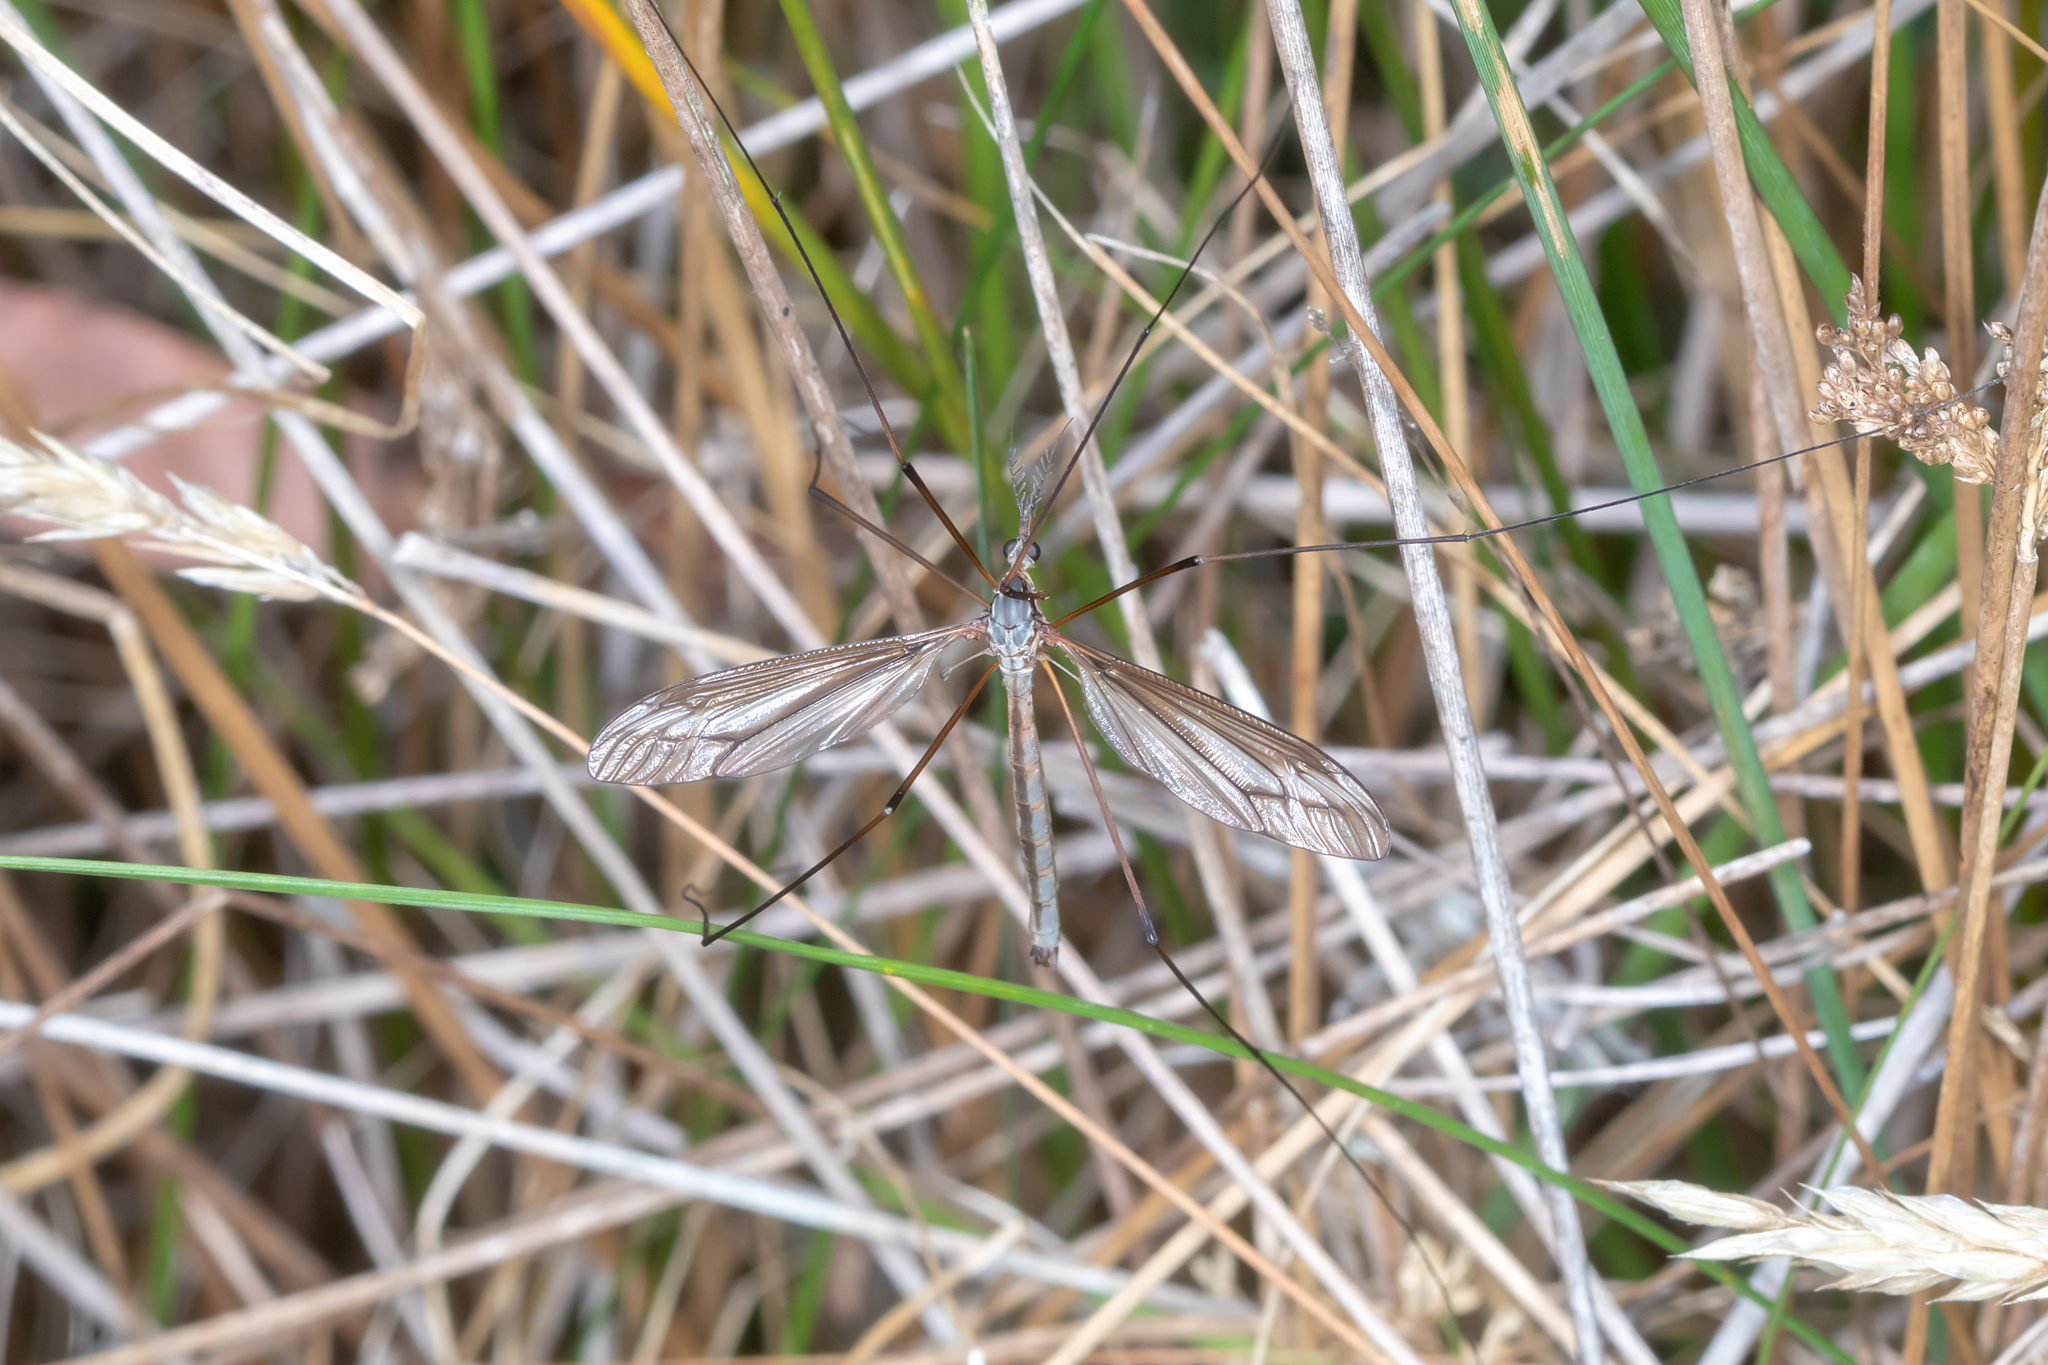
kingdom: Animalia
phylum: Arthropoda
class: Insecta
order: Diptera
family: Tipulidae
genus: Ptilogyna
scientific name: Ptilogyna gracilis
